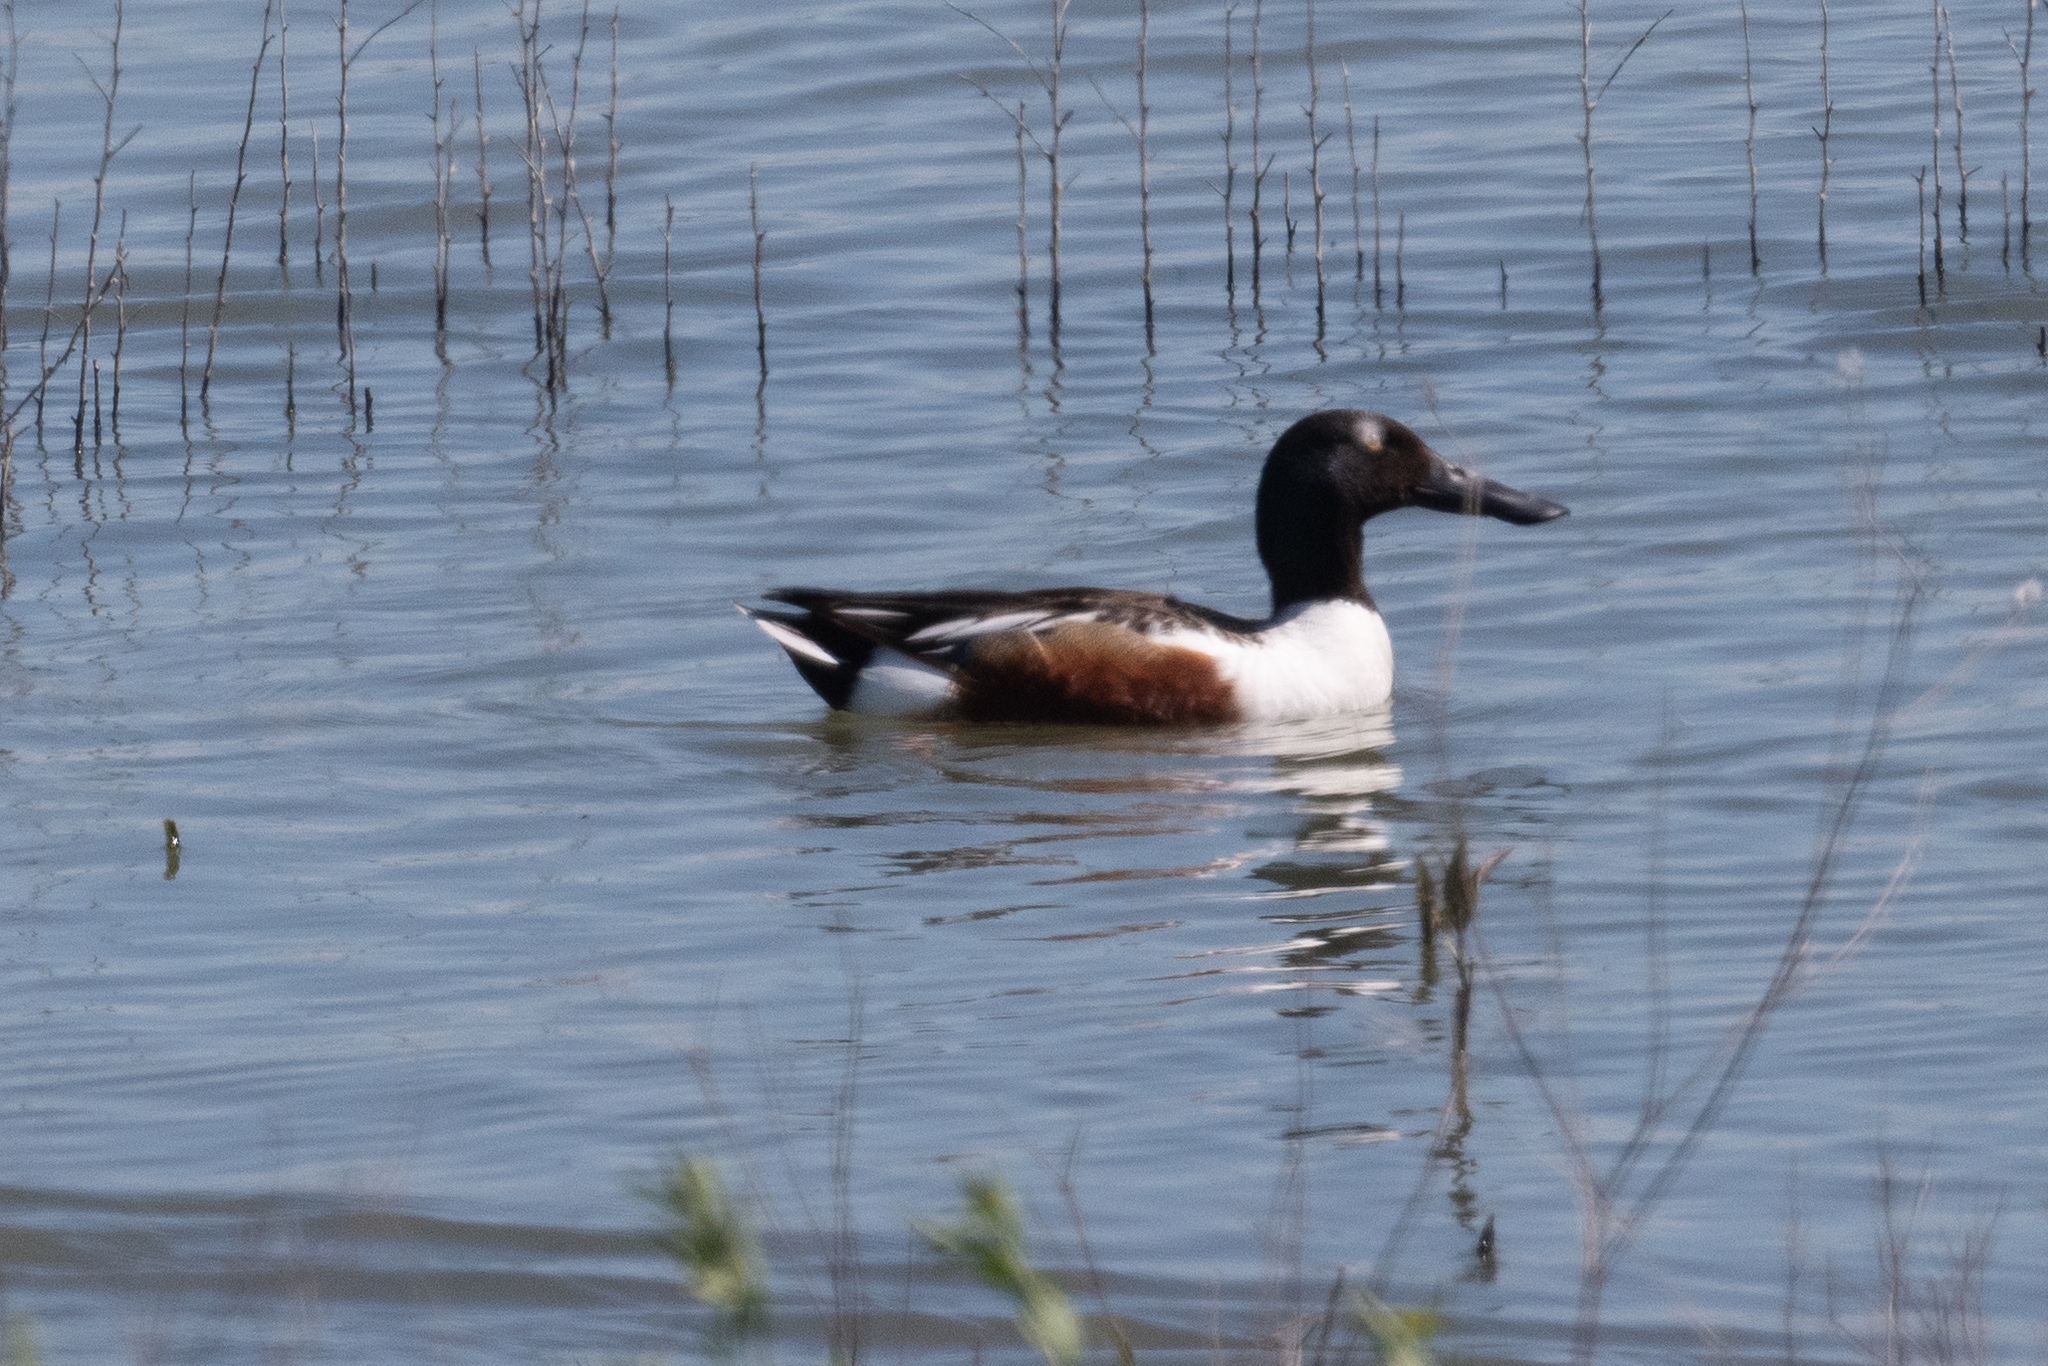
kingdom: Animalia
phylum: Chordata
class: Aves
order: Anseriformes
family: Anatidae
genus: Spatula
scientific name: Spatula clypeata
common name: Northern shoveler
